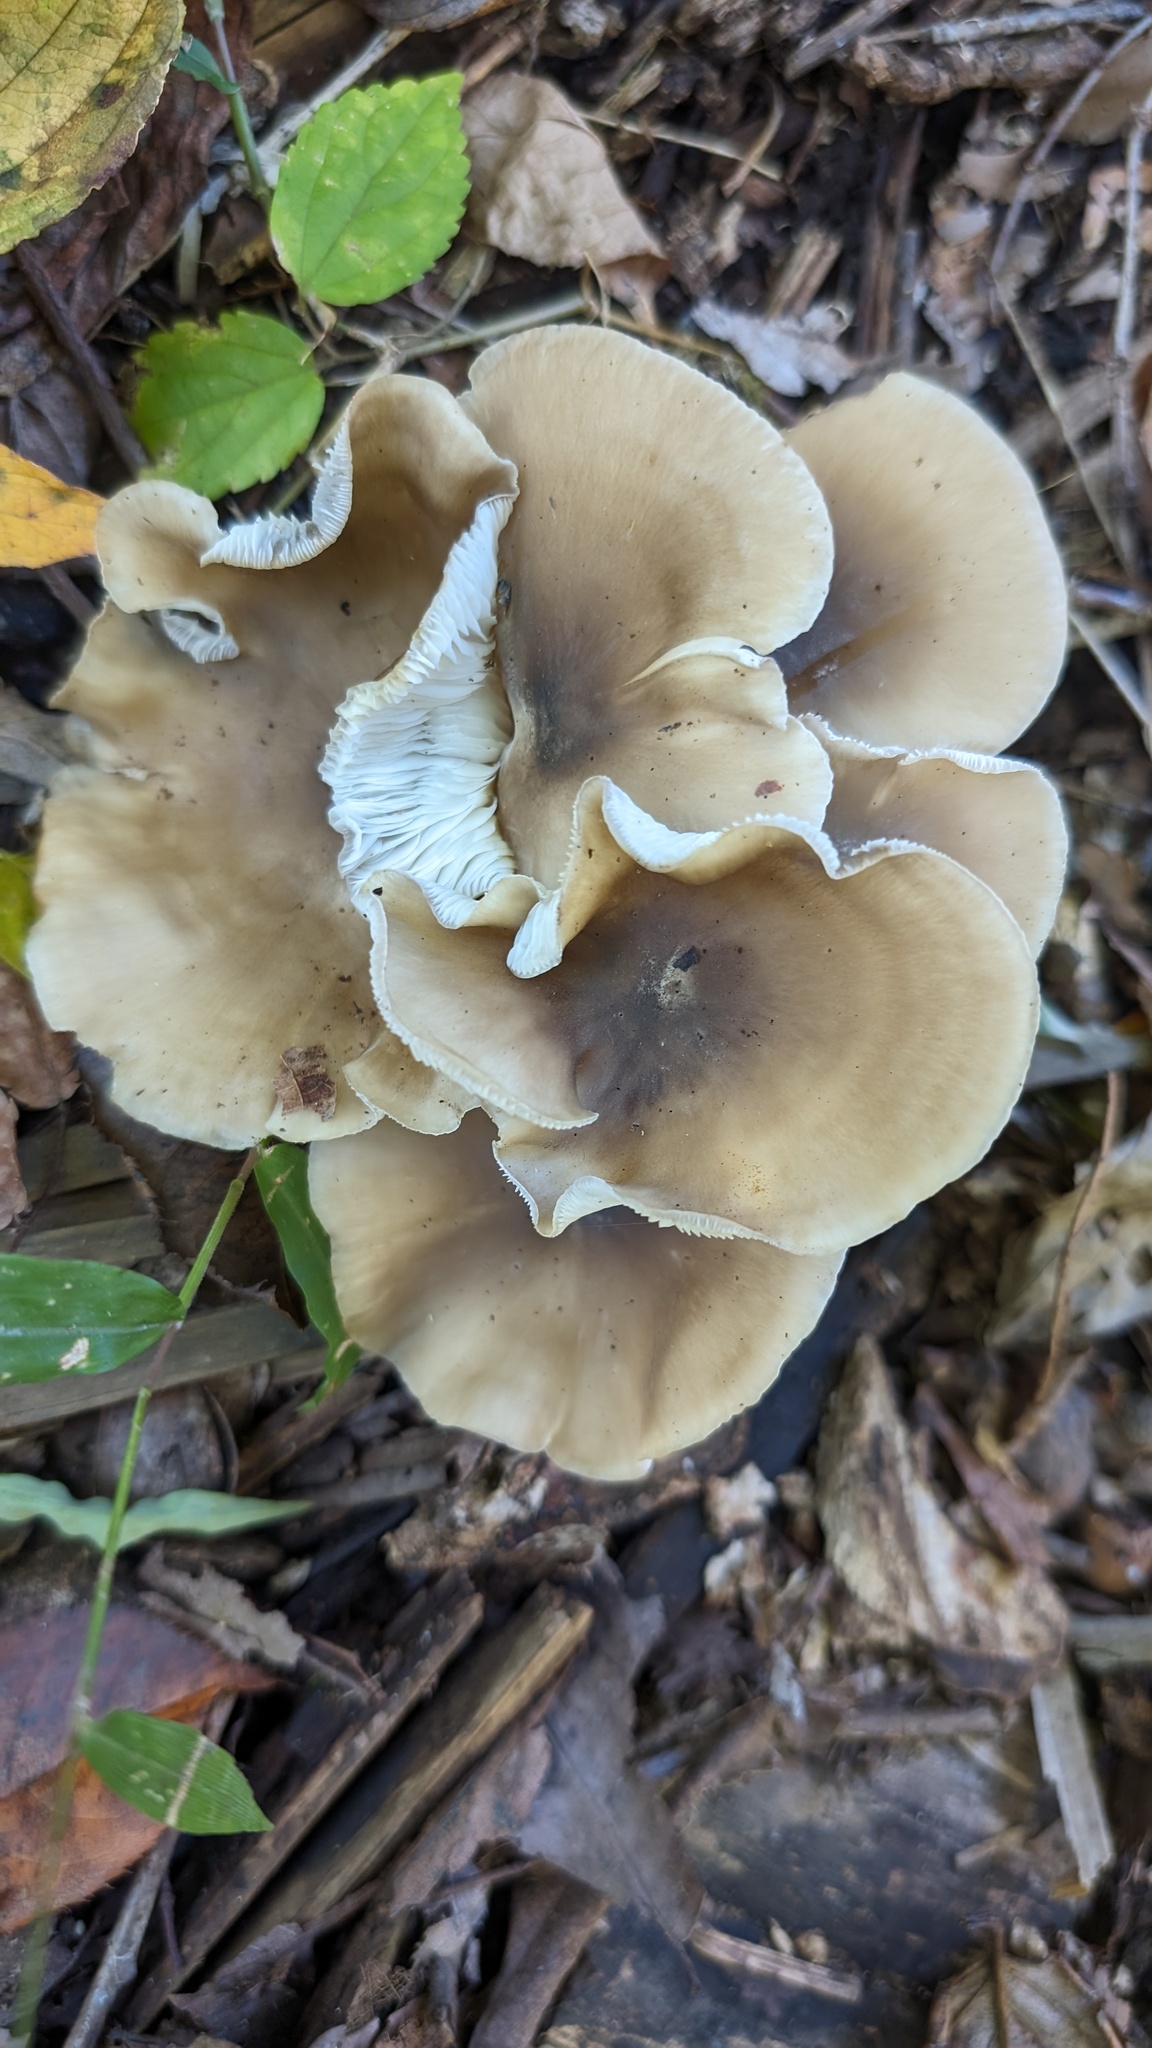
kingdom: Fungi
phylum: Basidiomycota
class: Agaricomycetes
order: Agaricales
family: Lyophyllaceae
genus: Lyophyllum
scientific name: Lyophyllum decastes
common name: Clustered domecap
